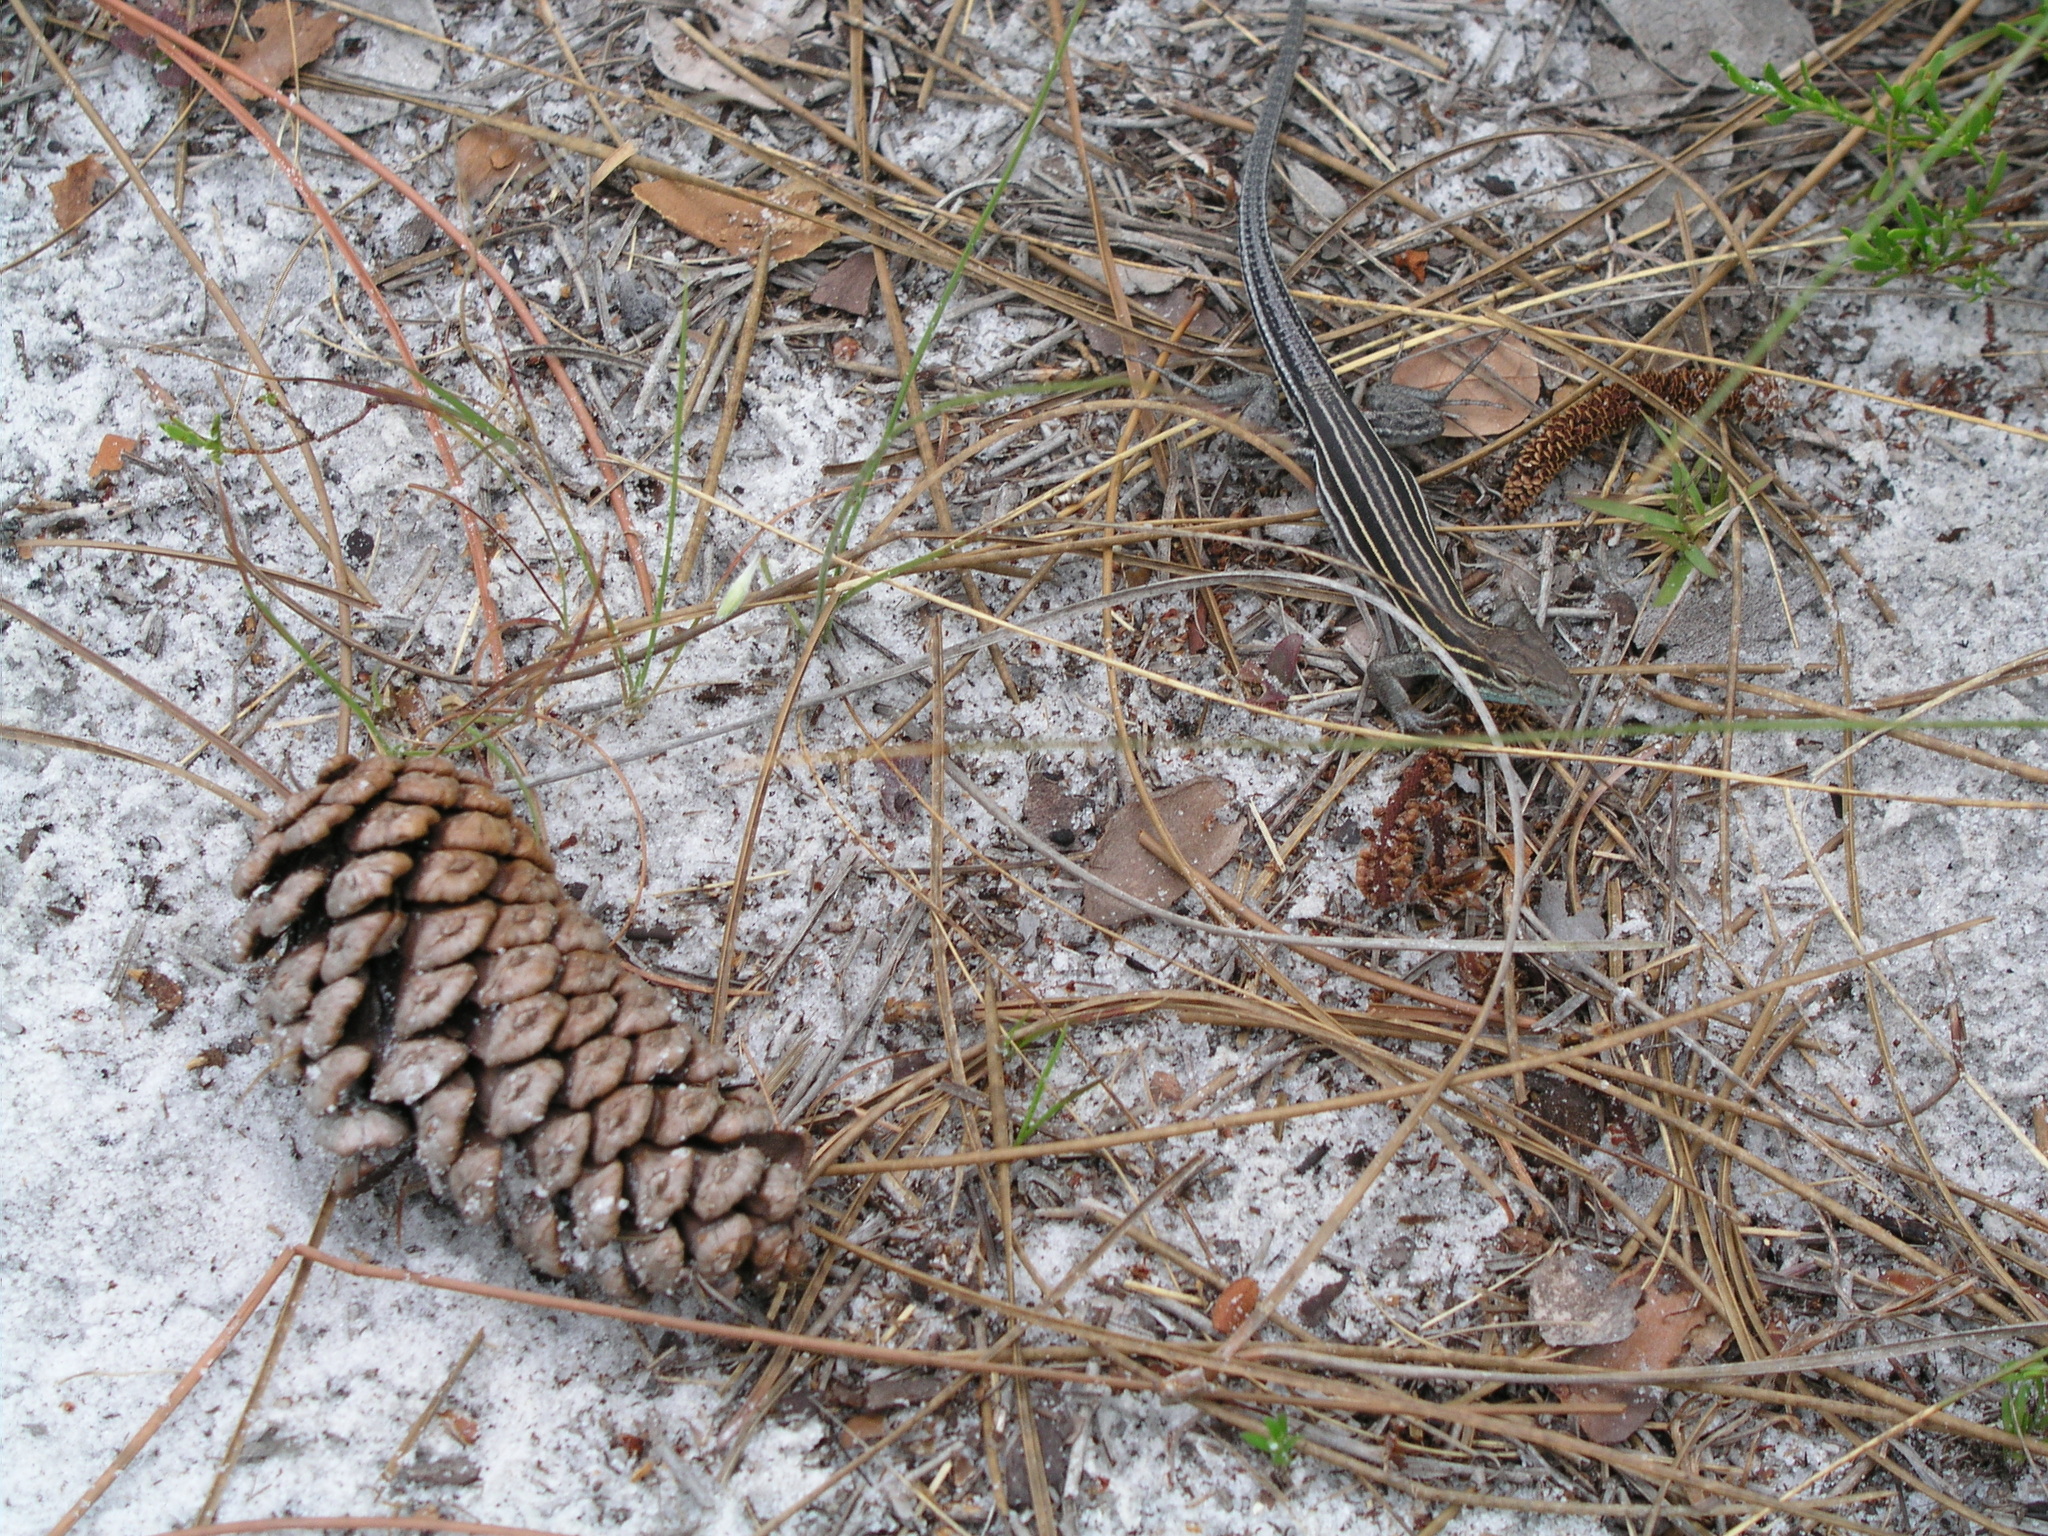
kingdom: Animalia
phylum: Chordata
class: Squamata
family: Teiidae
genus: Aspidoscelis
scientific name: Aspidoscelis sexlineatus
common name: Six-lined racerunner
